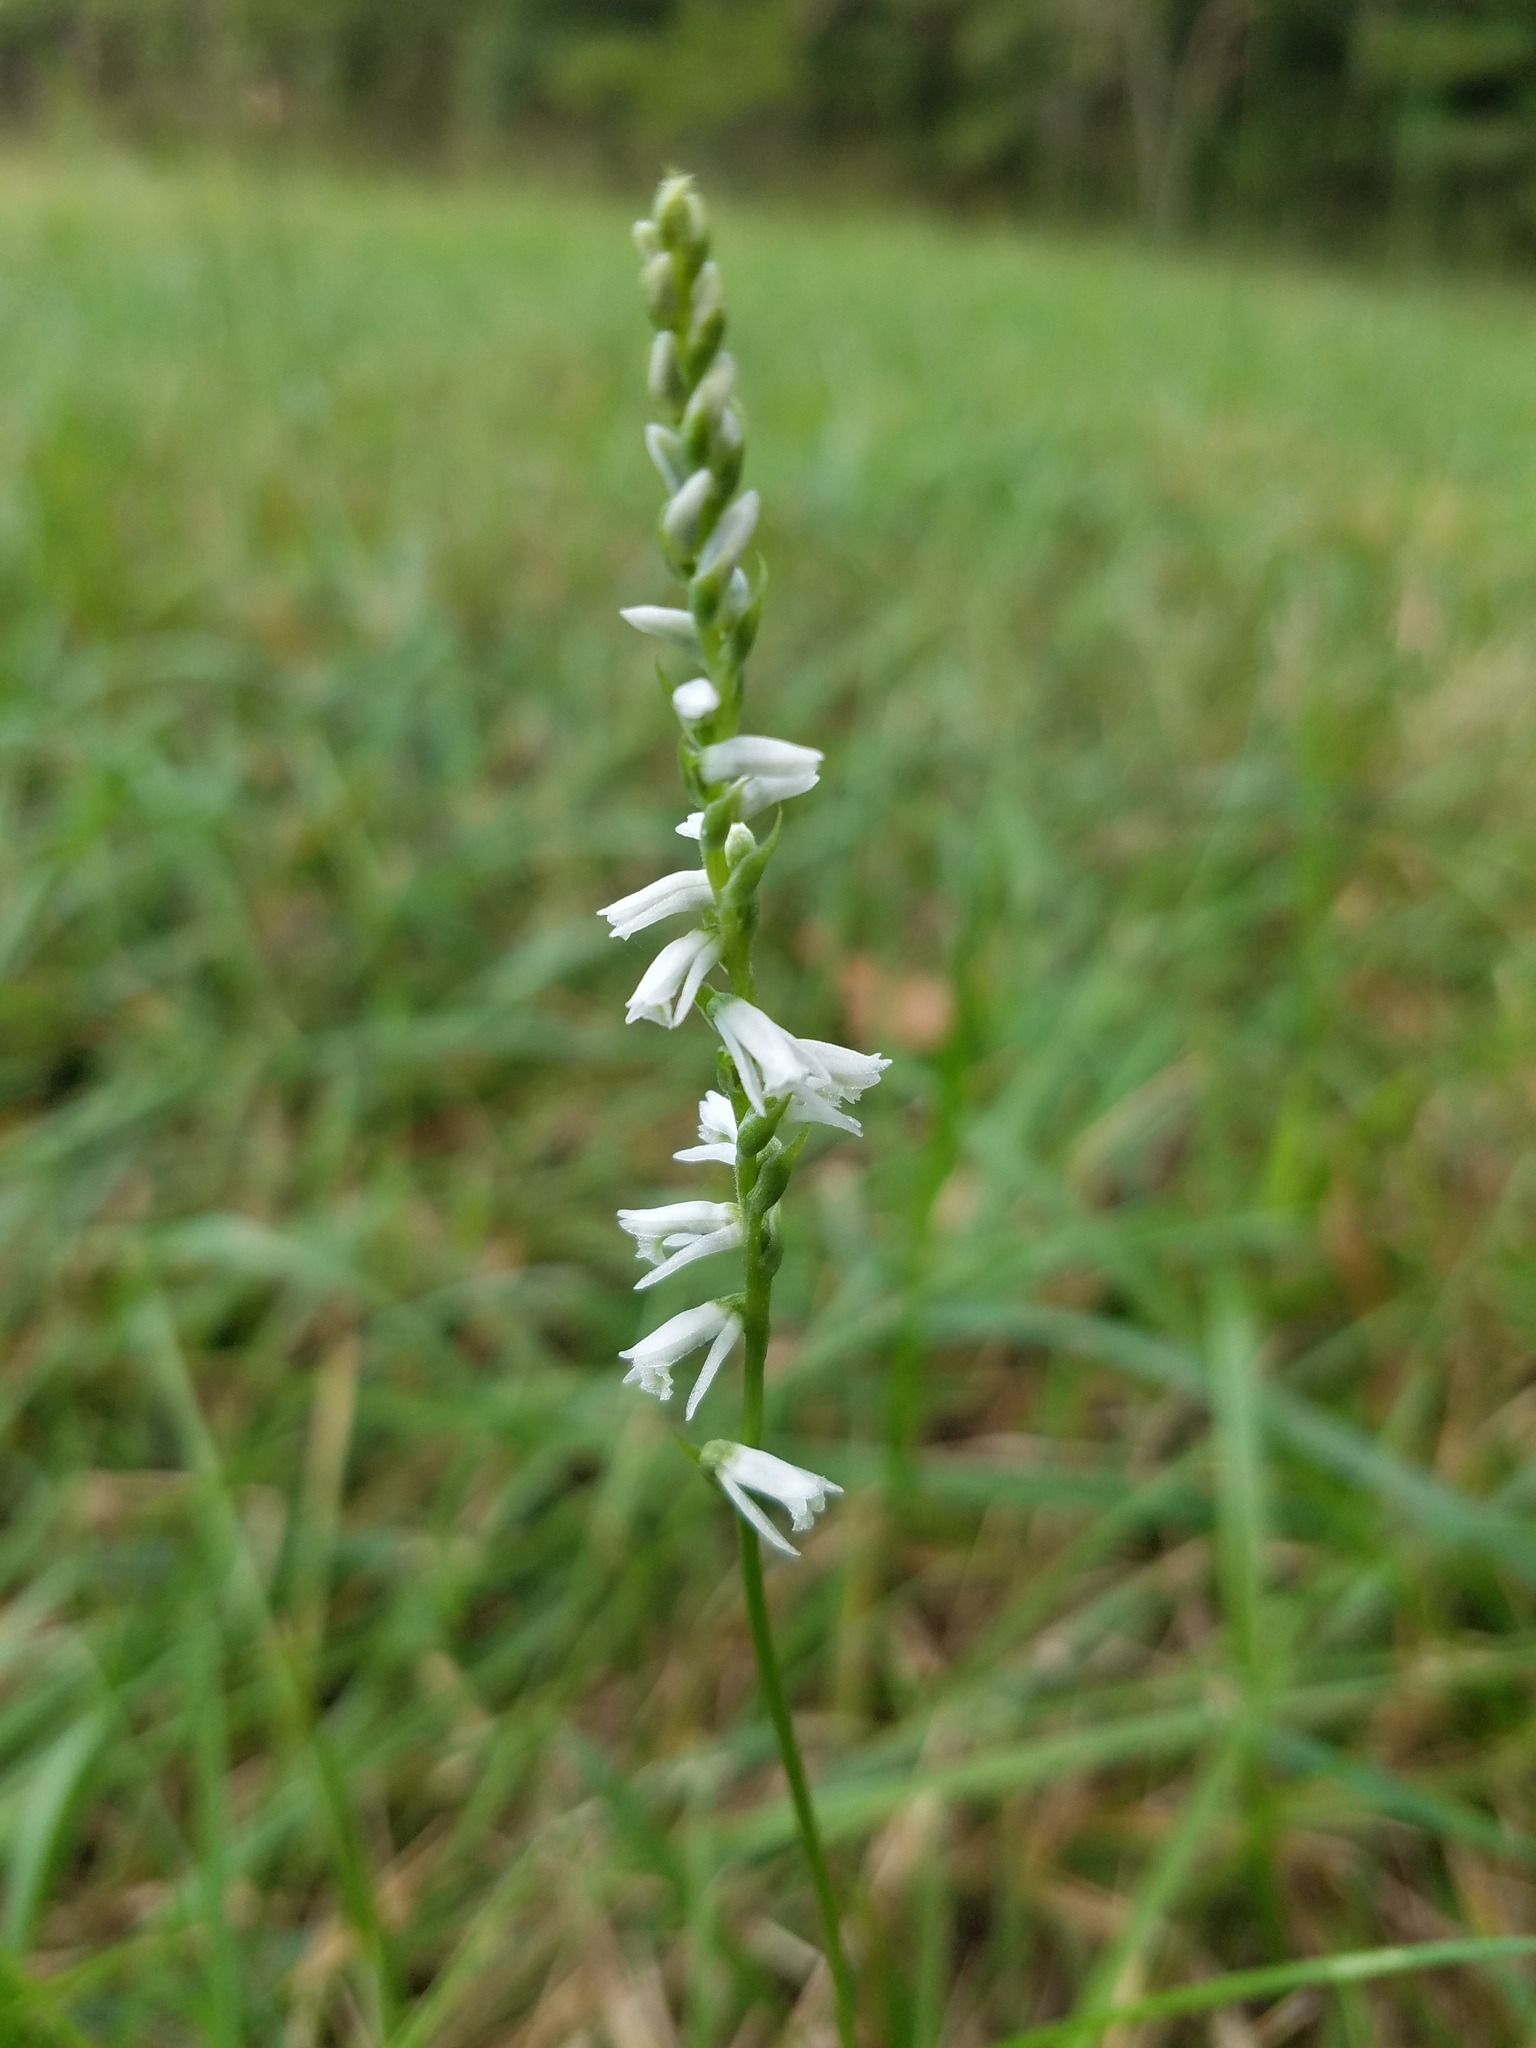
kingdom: Plantae
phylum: Tracheophyta
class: Liliopsida
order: Asparagales
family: Orchidaceae
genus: Spiranthes
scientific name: Spiranthes lacera
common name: Northern slender ladies'-tresses
